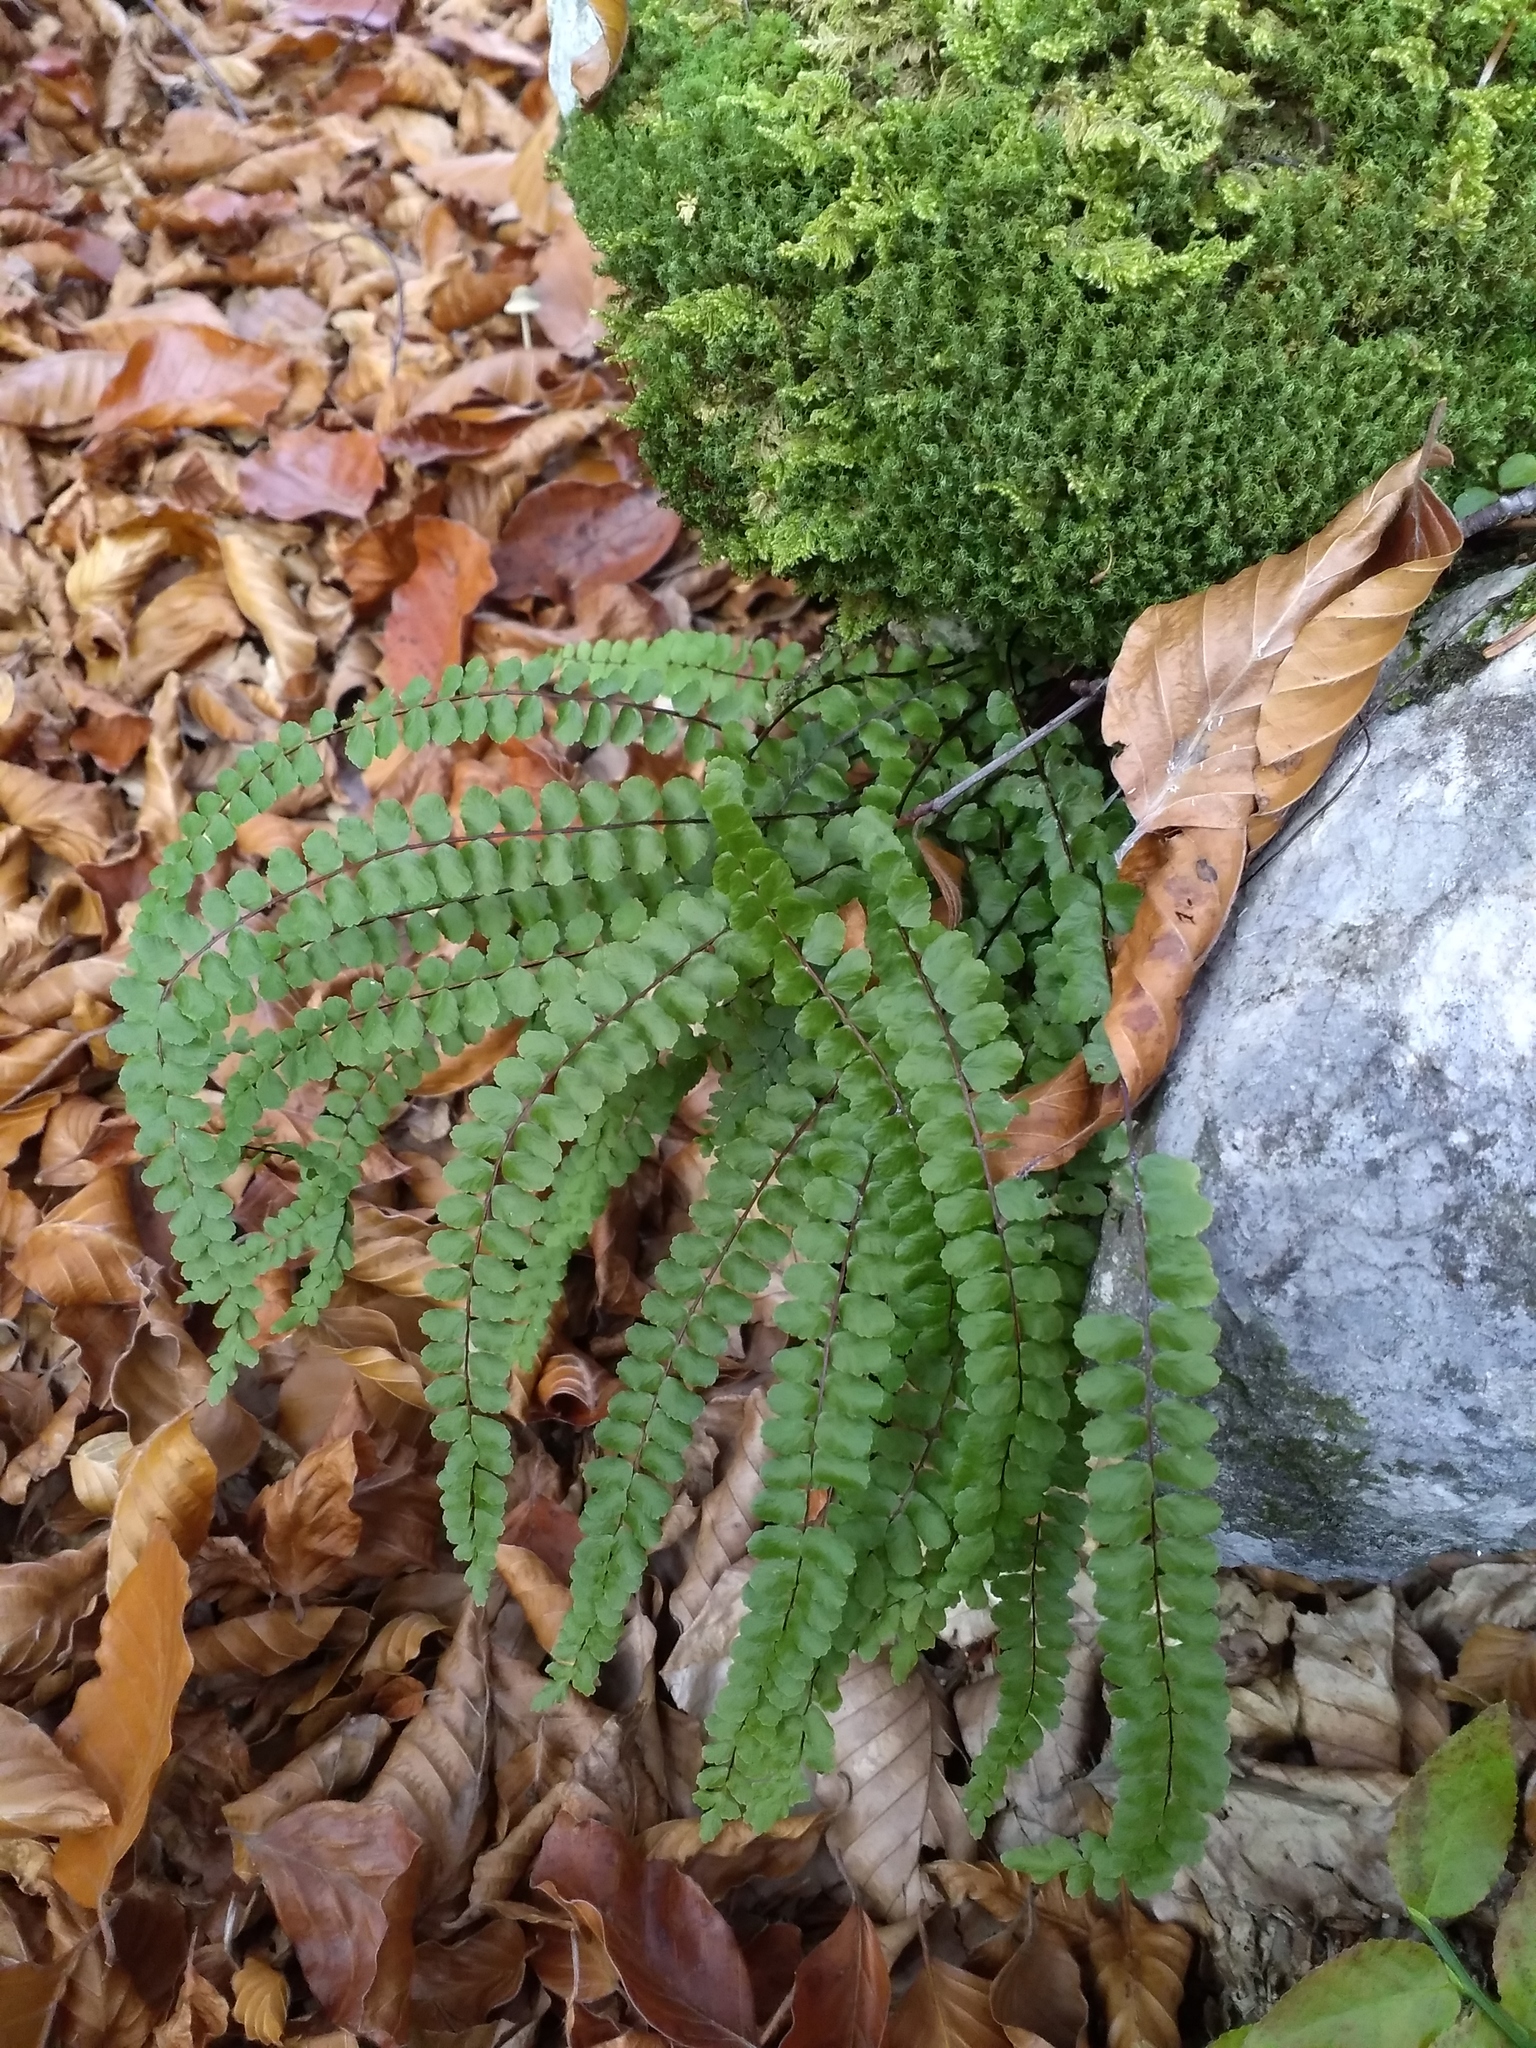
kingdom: Plantae
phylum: Tracheophyta
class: Polypodiopsida
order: Polypodiales
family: Aspleniaceae
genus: Asplenium
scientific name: Asplenium trichomanes
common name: Maidenhair spleenwort
